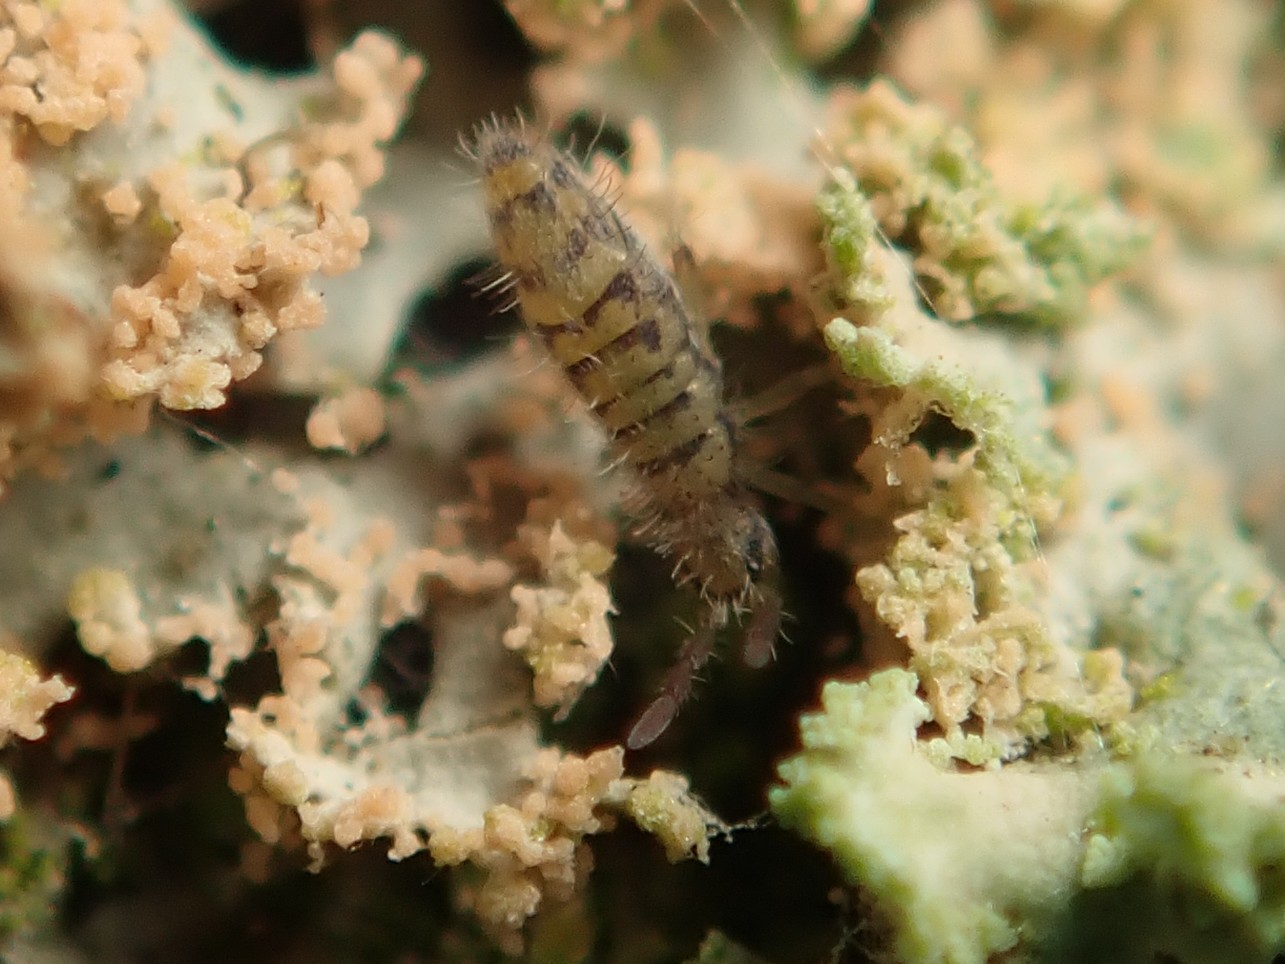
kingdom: Animalia
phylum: Arthropoda
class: Collembola
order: Entomobryomorpha
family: Entomobryidae
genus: Entomobrya
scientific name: Entomobrya multifasciata
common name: Springtail
